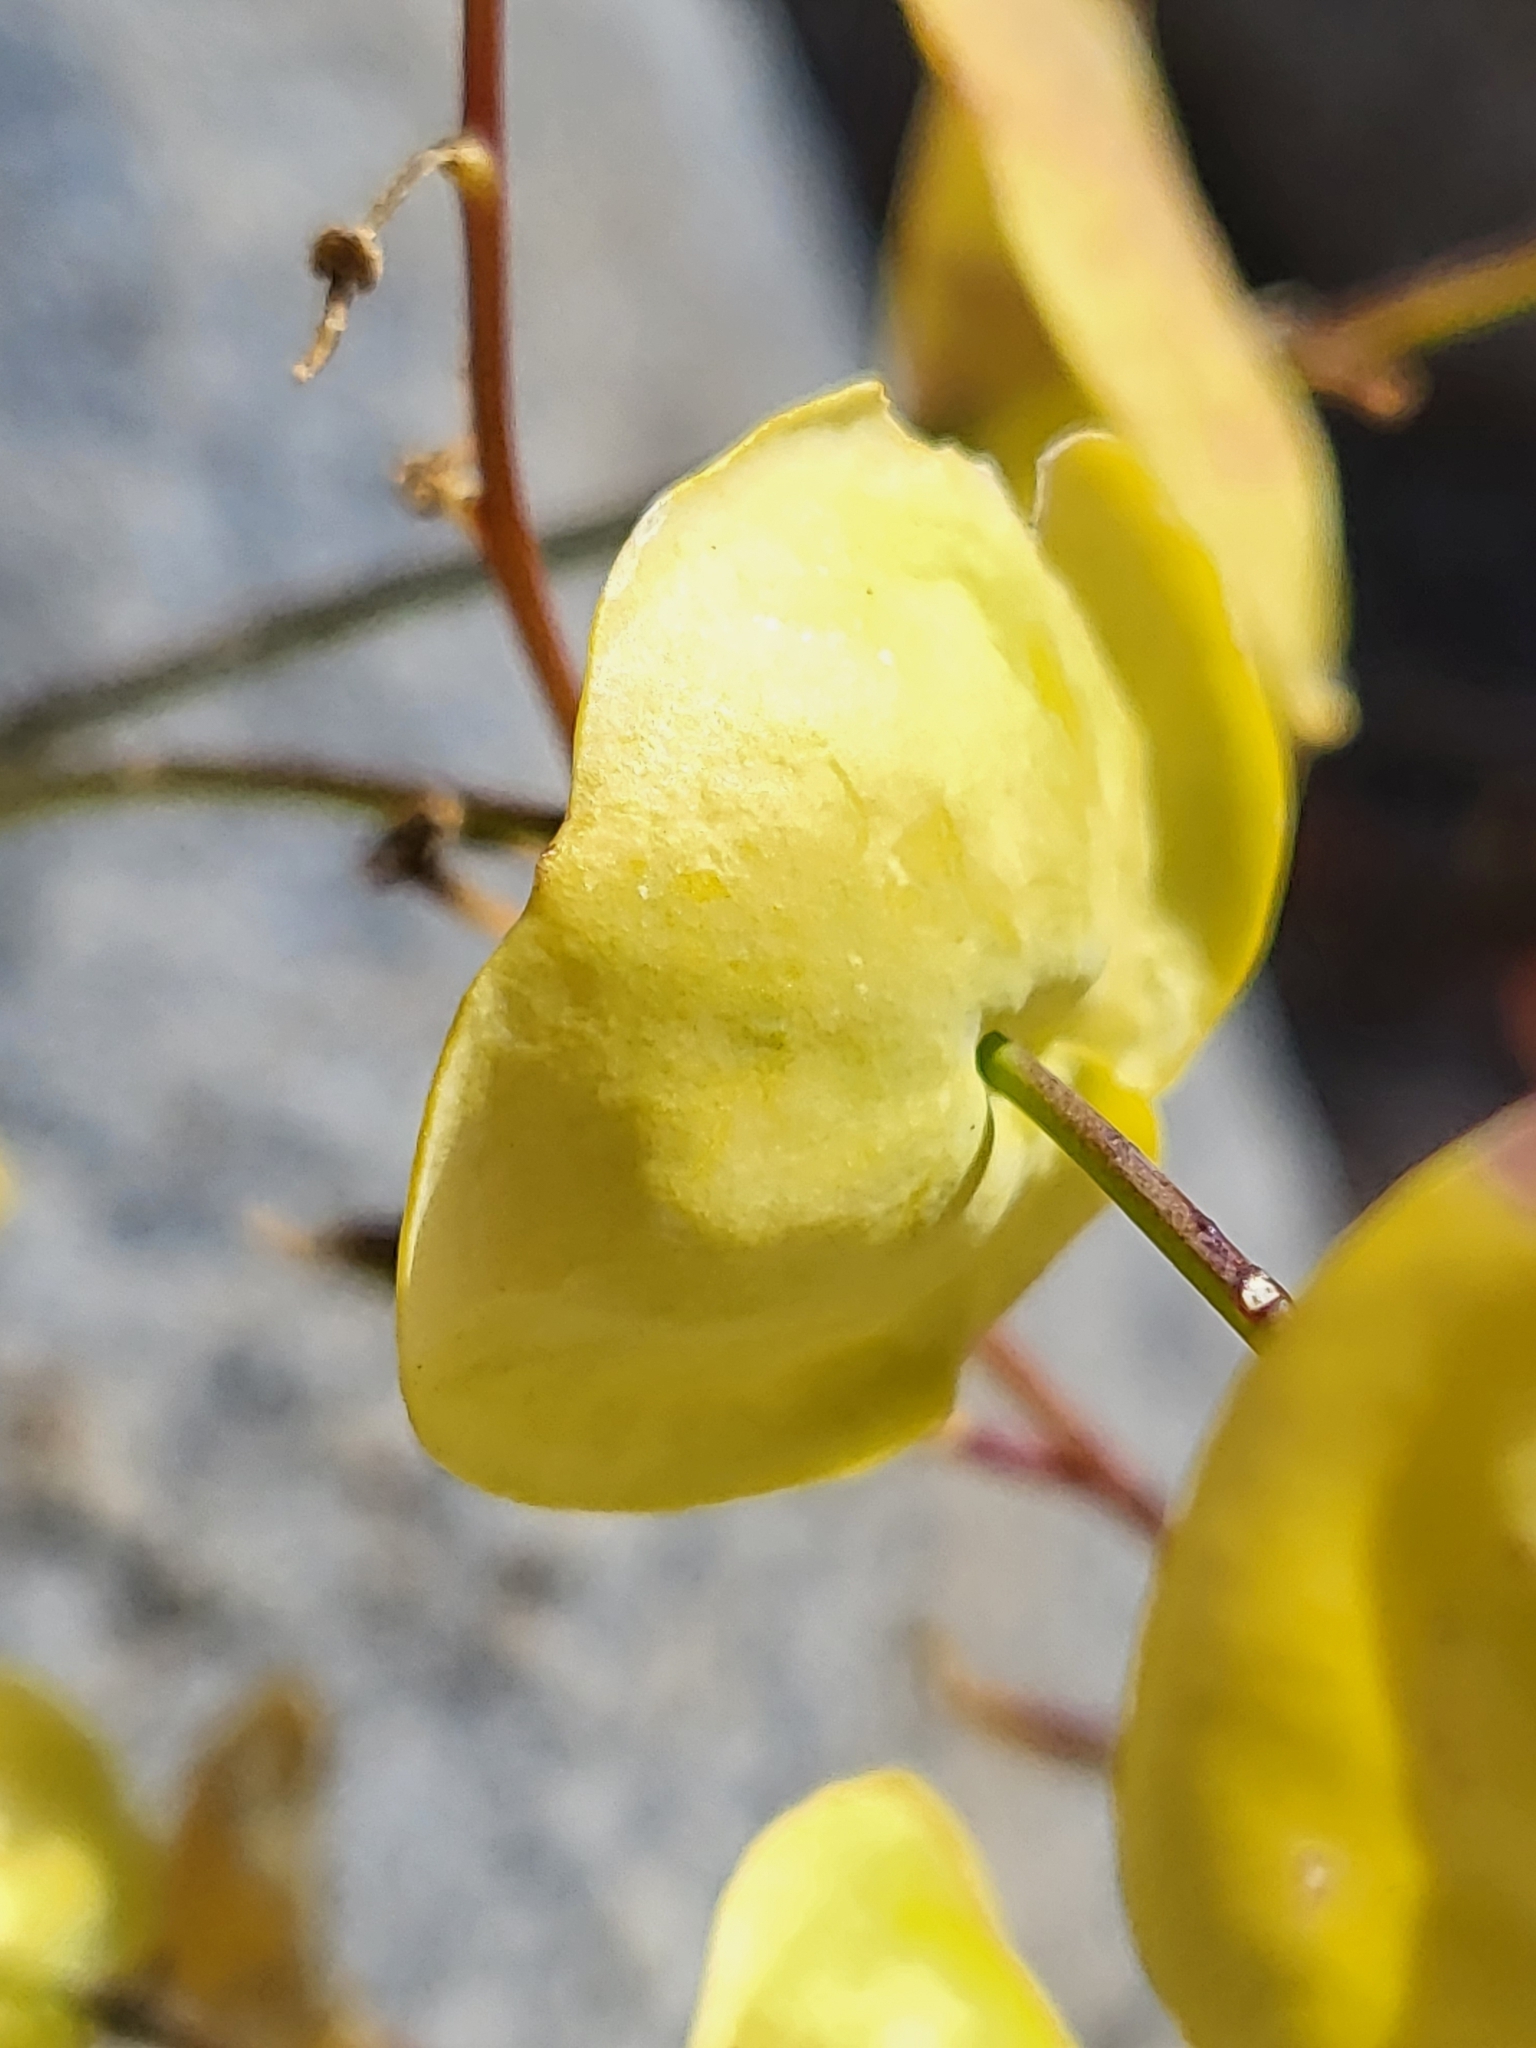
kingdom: Plantae
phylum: Tracheophyta
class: Magnoliopsida
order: Brassicales
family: Brassicaceae
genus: Streptanthus
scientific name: Streptanthus tortuosus
